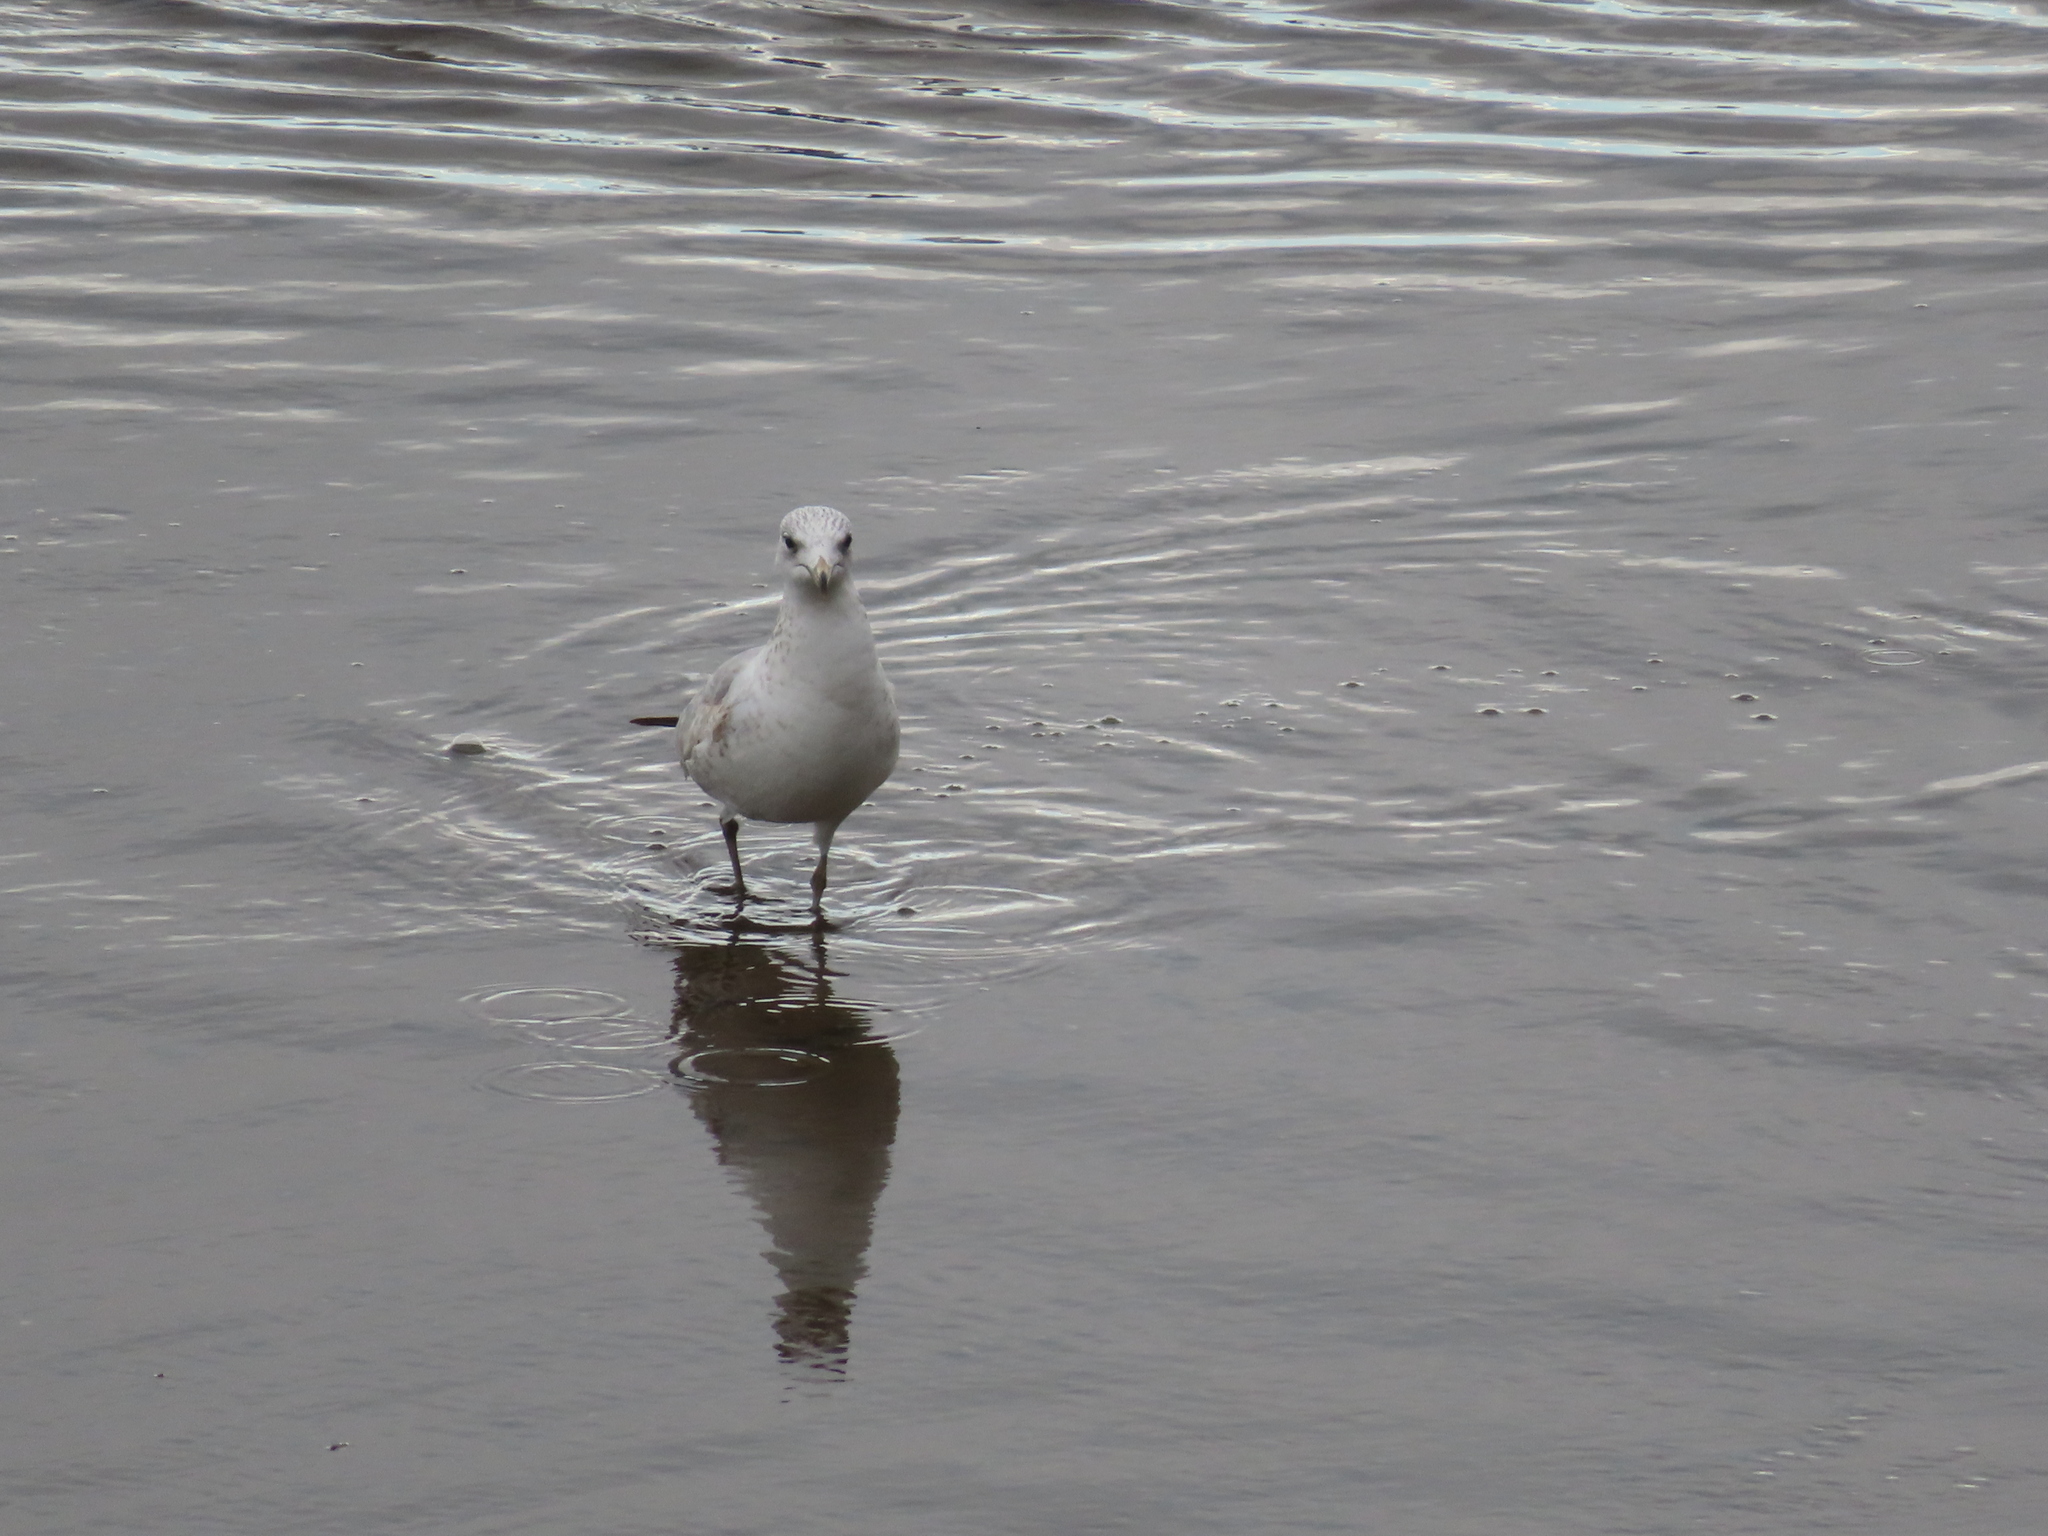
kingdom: Animalia
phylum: Chordata
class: Aves
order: Charadriiformes
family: Laridae
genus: Larus
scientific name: Larus delawarensis
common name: Ring-billed gull
